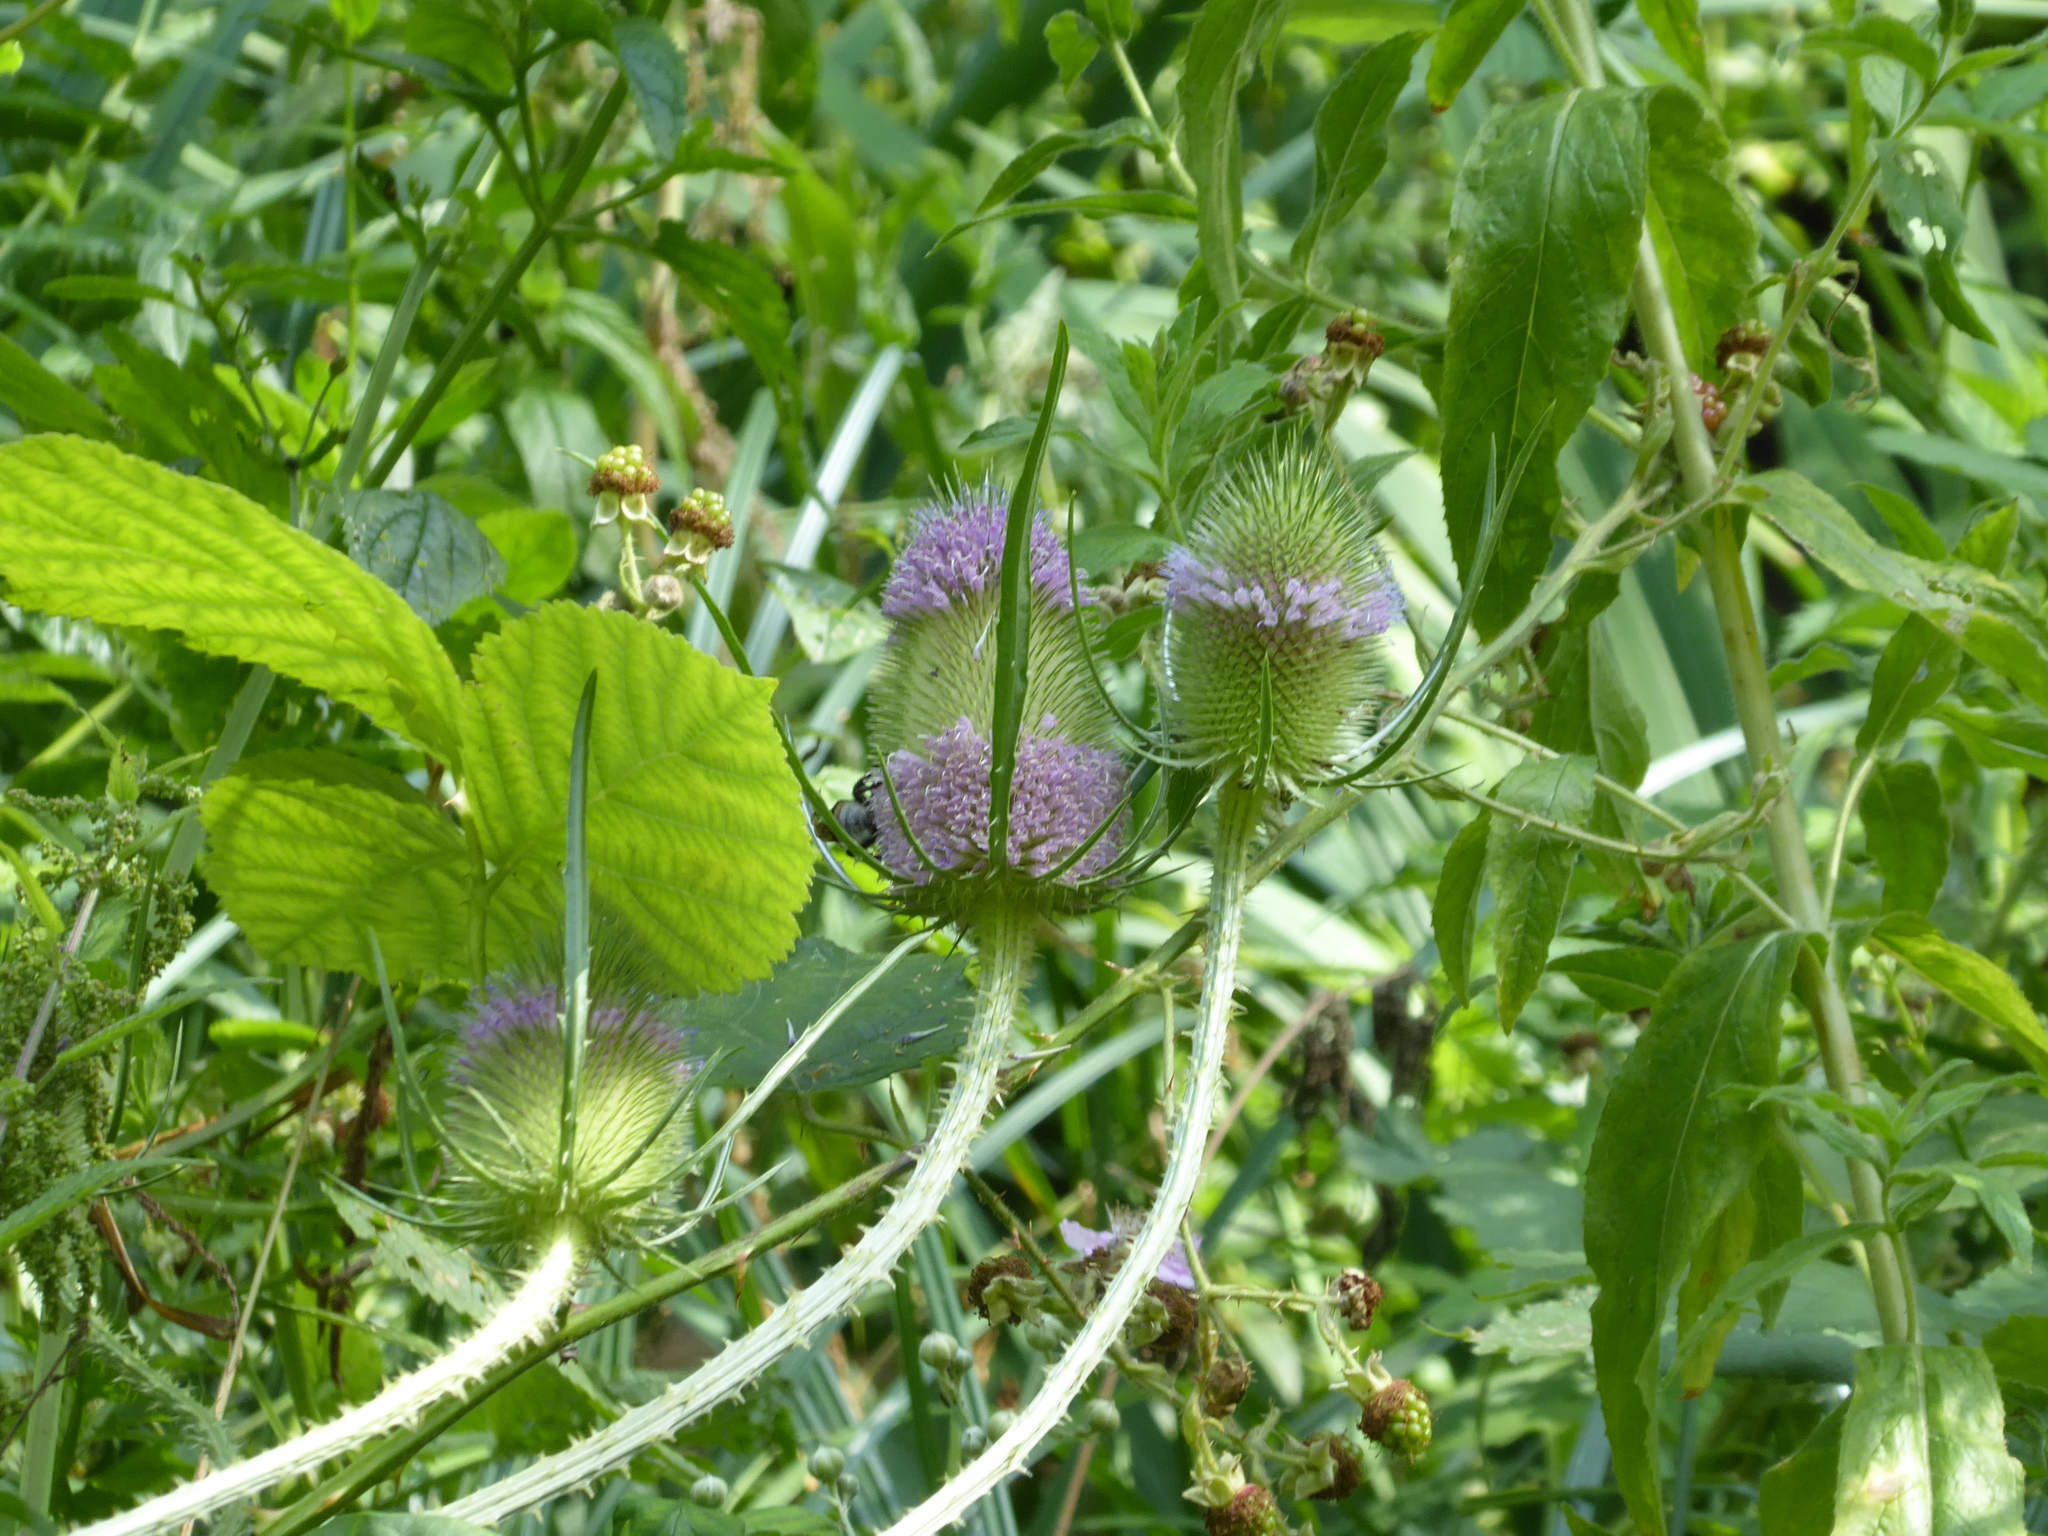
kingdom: Plantae
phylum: Tracheophyta
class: Magnoliopsida
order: Dipsacales
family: Caprifoliaceae
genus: Dipsacus
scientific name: Dipsacus fullonum
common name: Teasel
